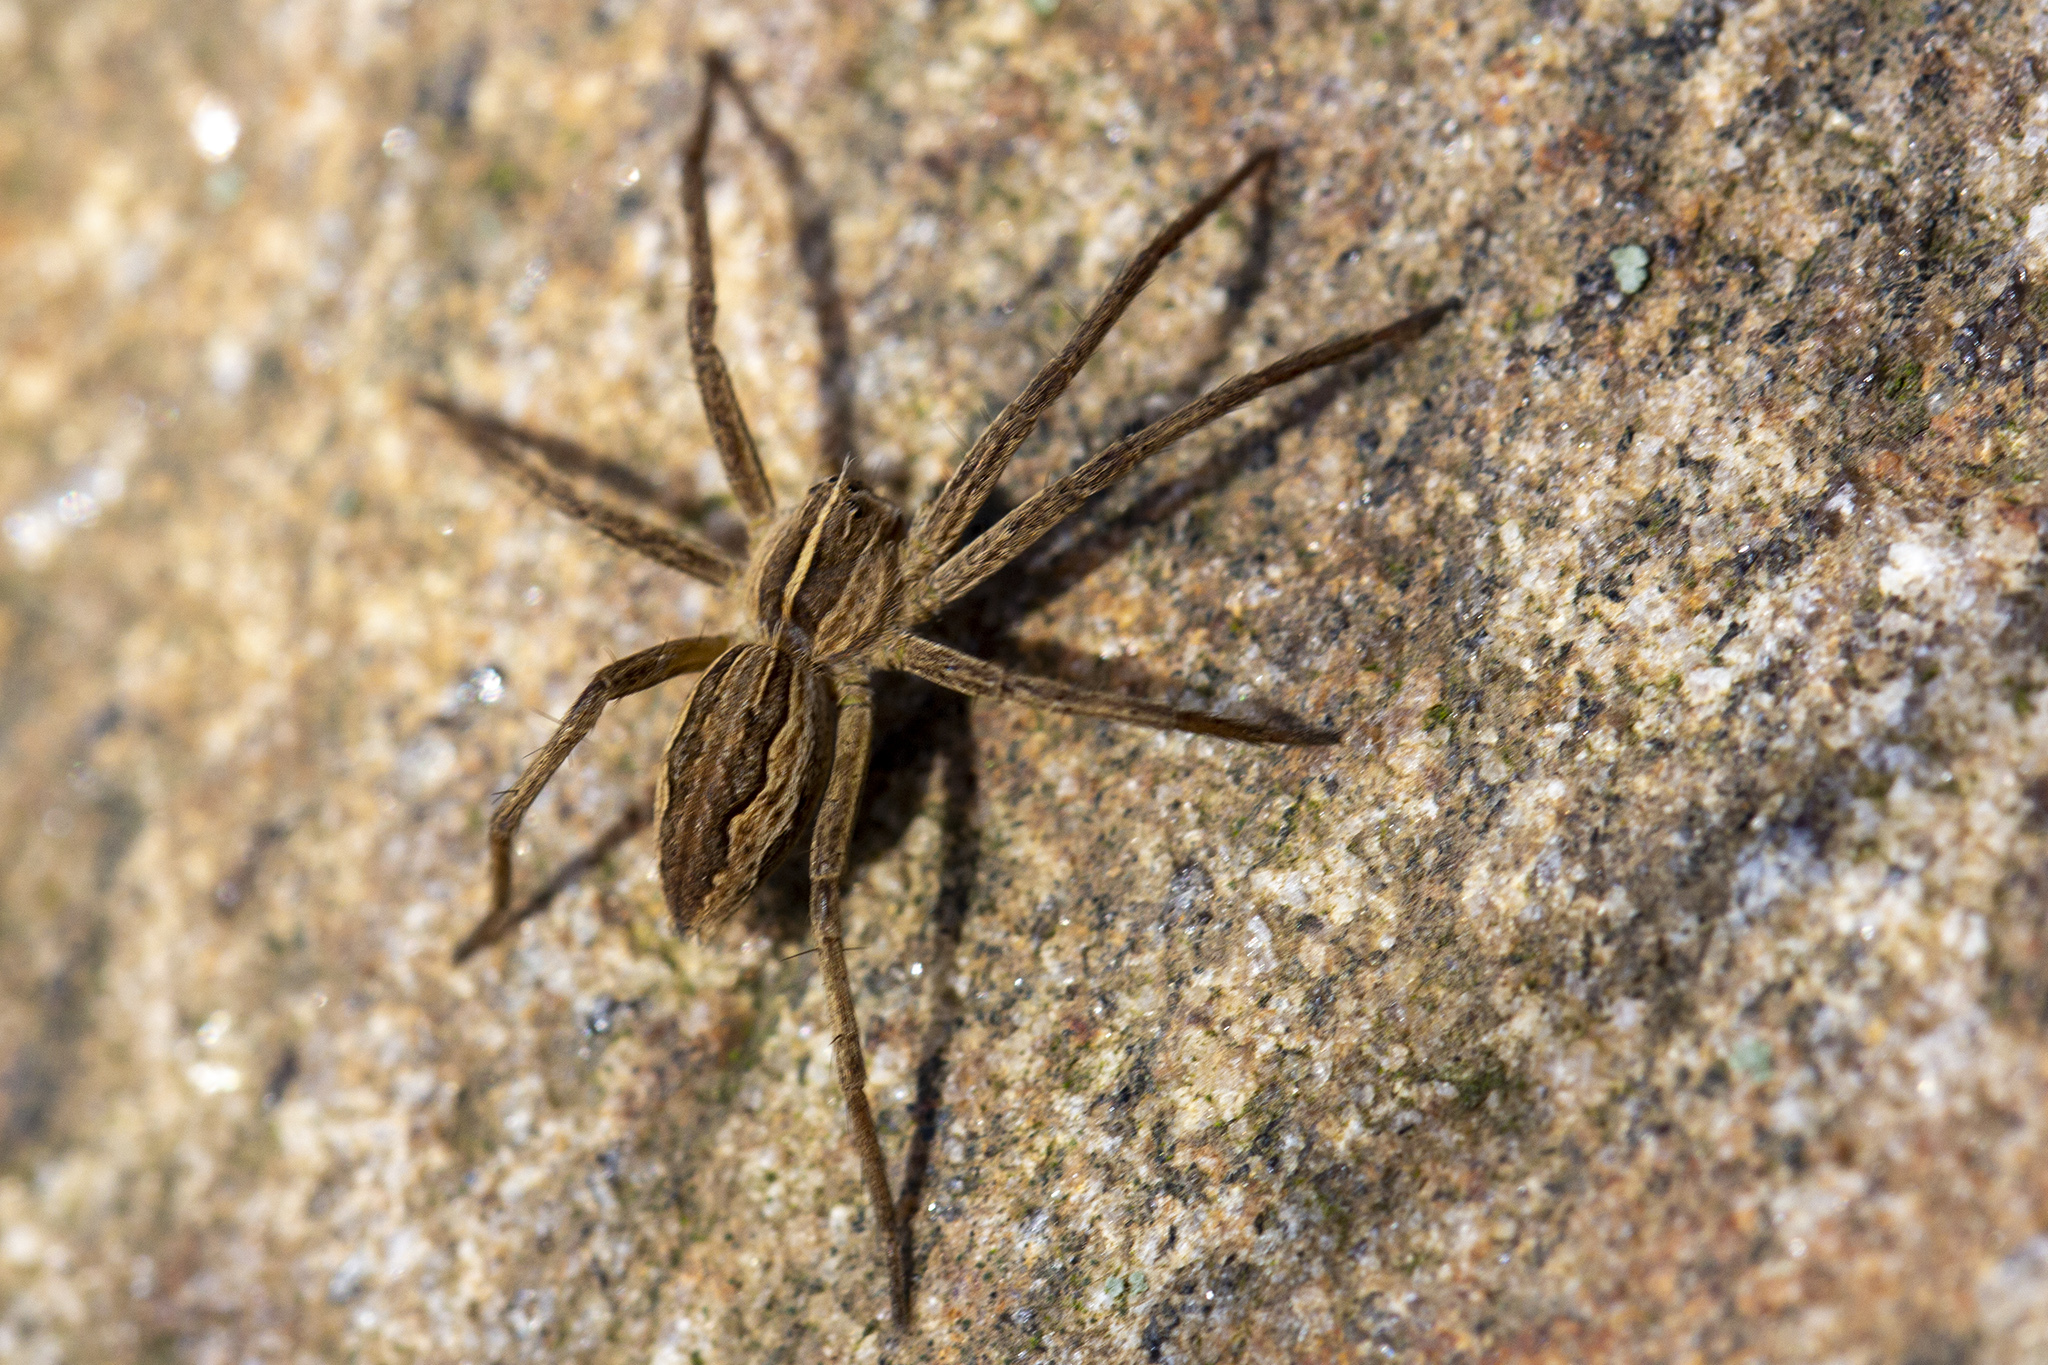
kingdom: Animalia
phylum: Arthropoda
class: Arachnida
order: Araneae
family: Pisauridae
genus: Pisaura
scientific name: Pisaura mirabilis
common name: Tent spider
